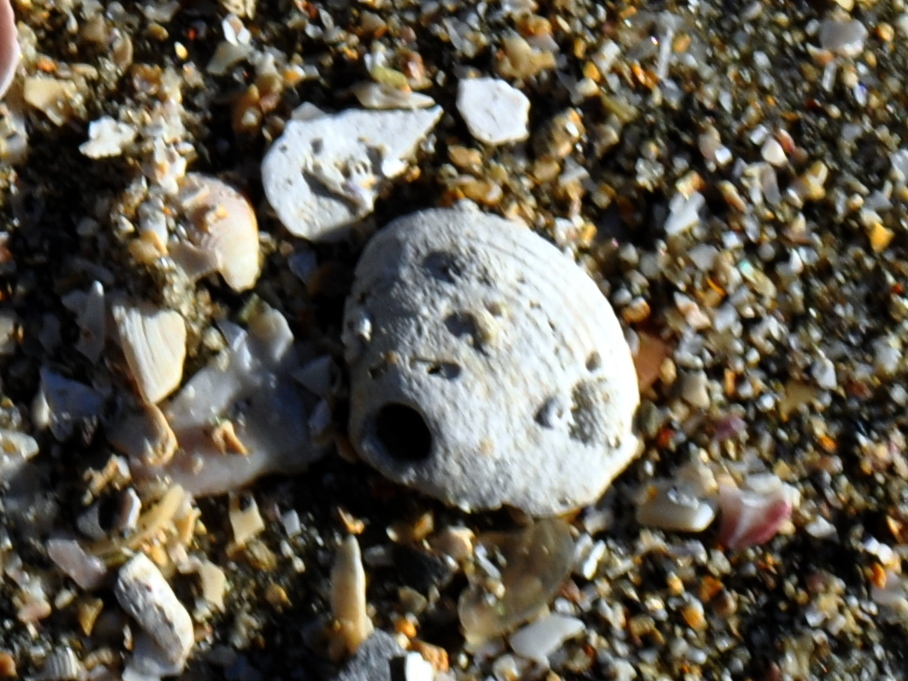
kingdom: Animalia
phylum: Mollusca
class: Bivalvia
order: Venerida
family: Veneridae
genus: Tawera
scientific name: Tawera spissa
